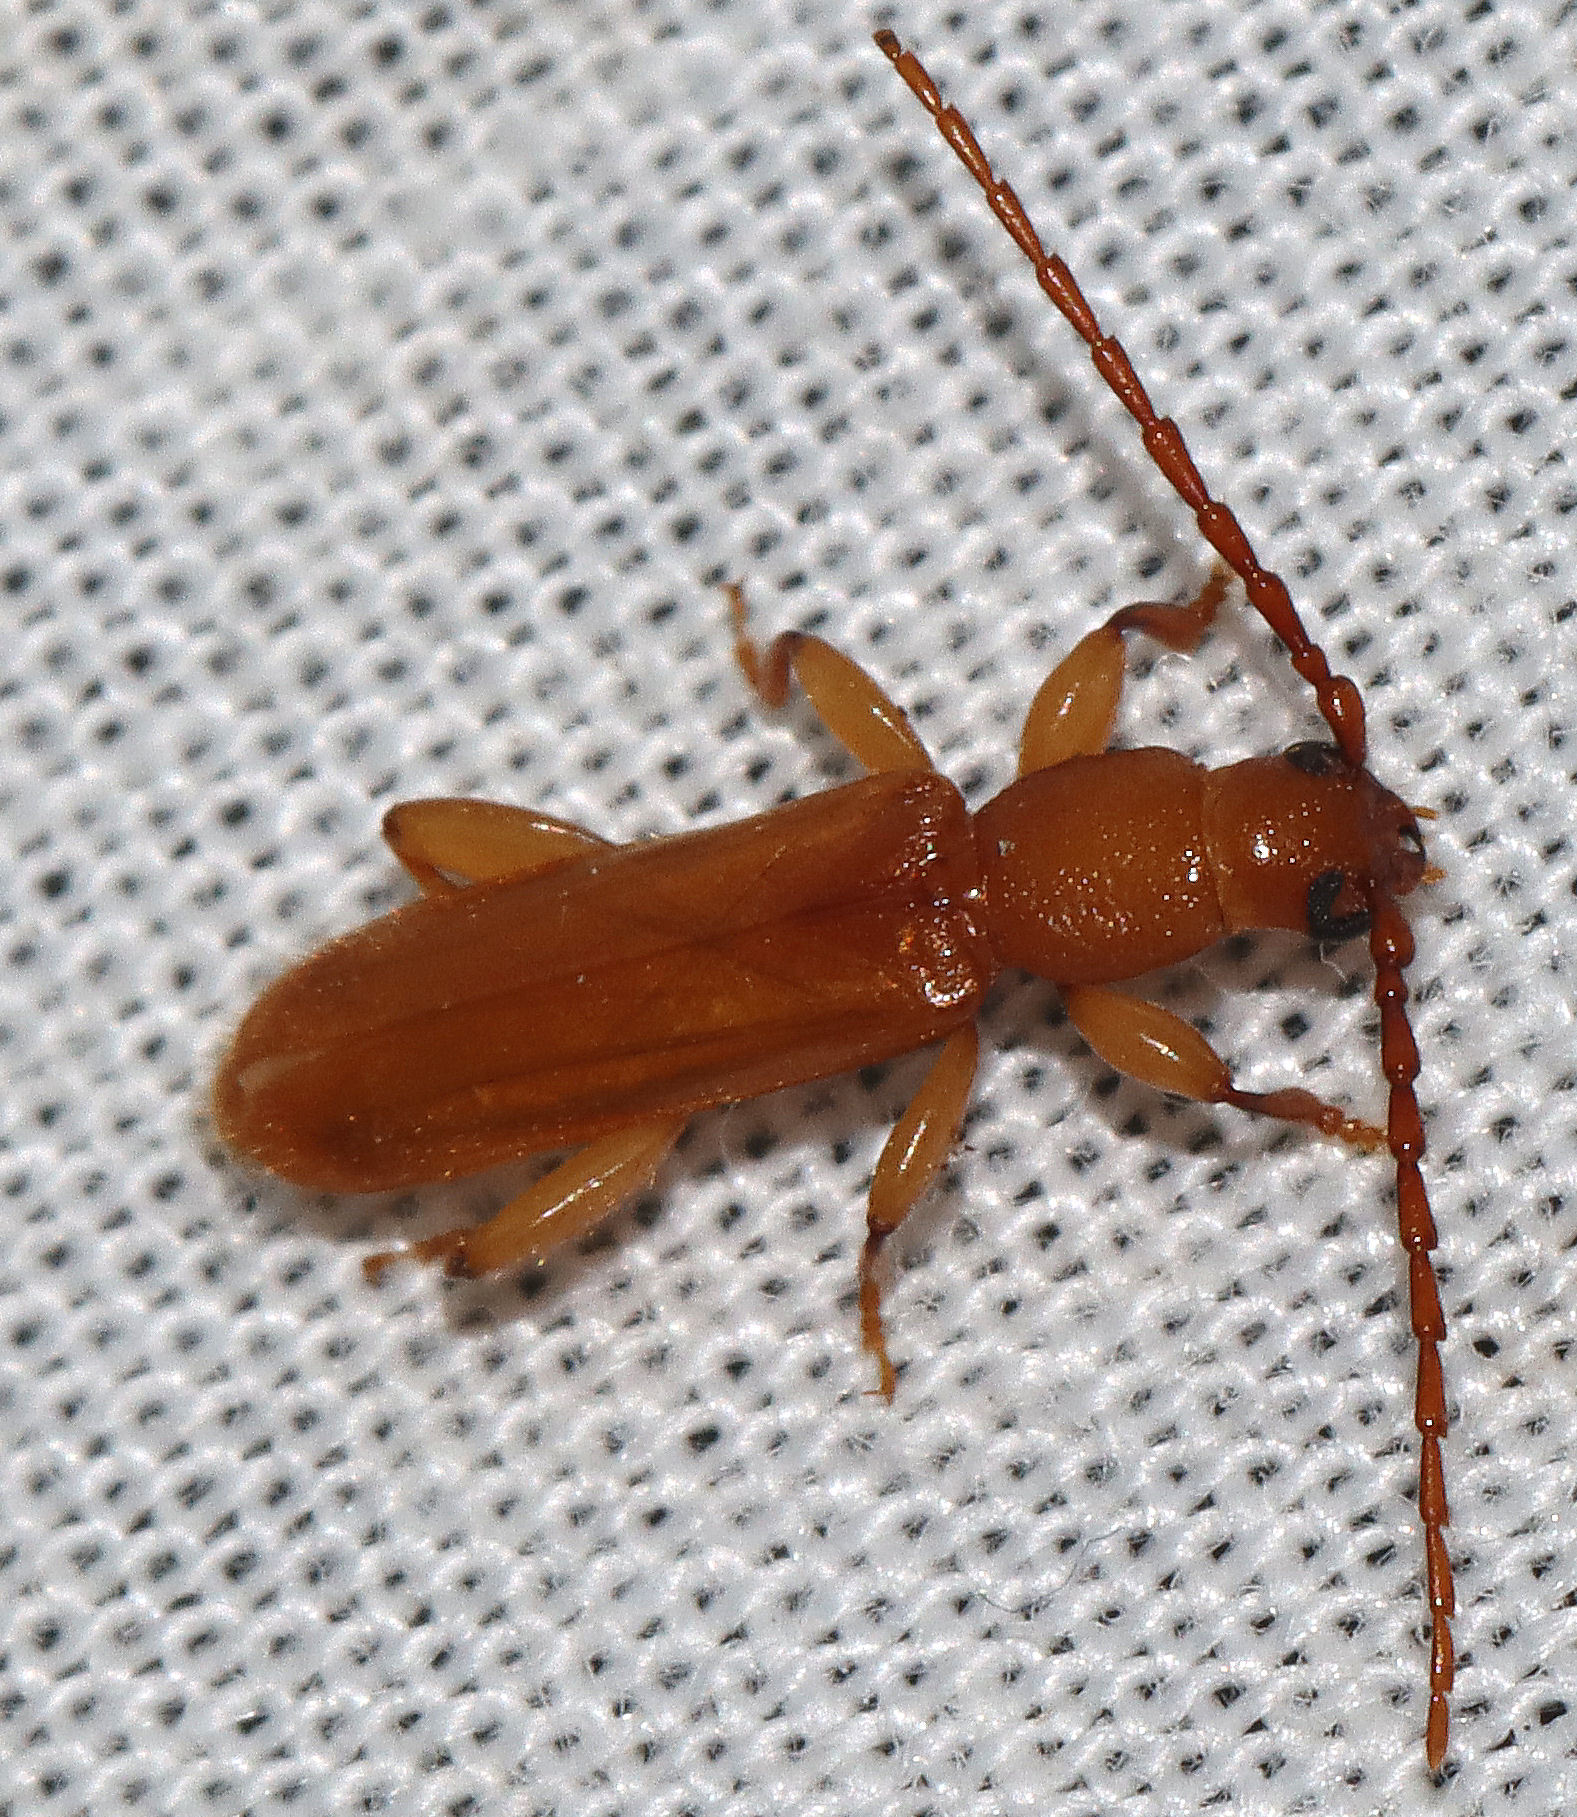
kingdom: Animalia
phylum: Arthropoda
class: Insecta
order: Coleoptera
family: Cerambycidae
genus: Smodicum
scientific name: Smodicum cucujiforme
